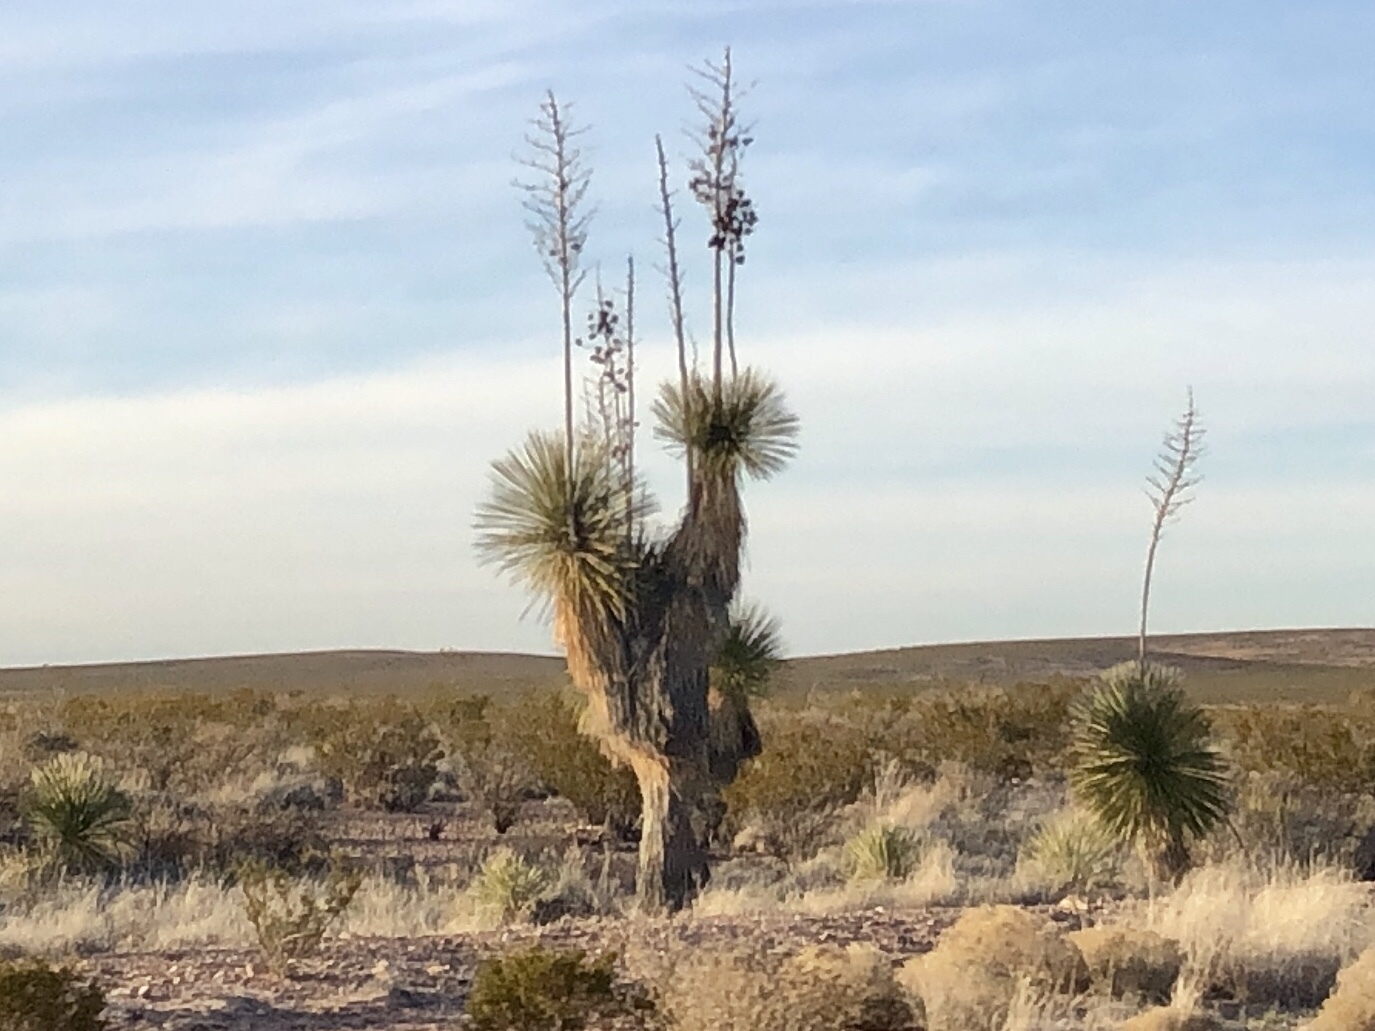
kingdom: Plantae
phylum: Tracheophyta
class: Liliopsida
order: Asparagales
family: Asparagaceae
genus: Yucca
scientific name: Yucca elata
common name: Palmella
